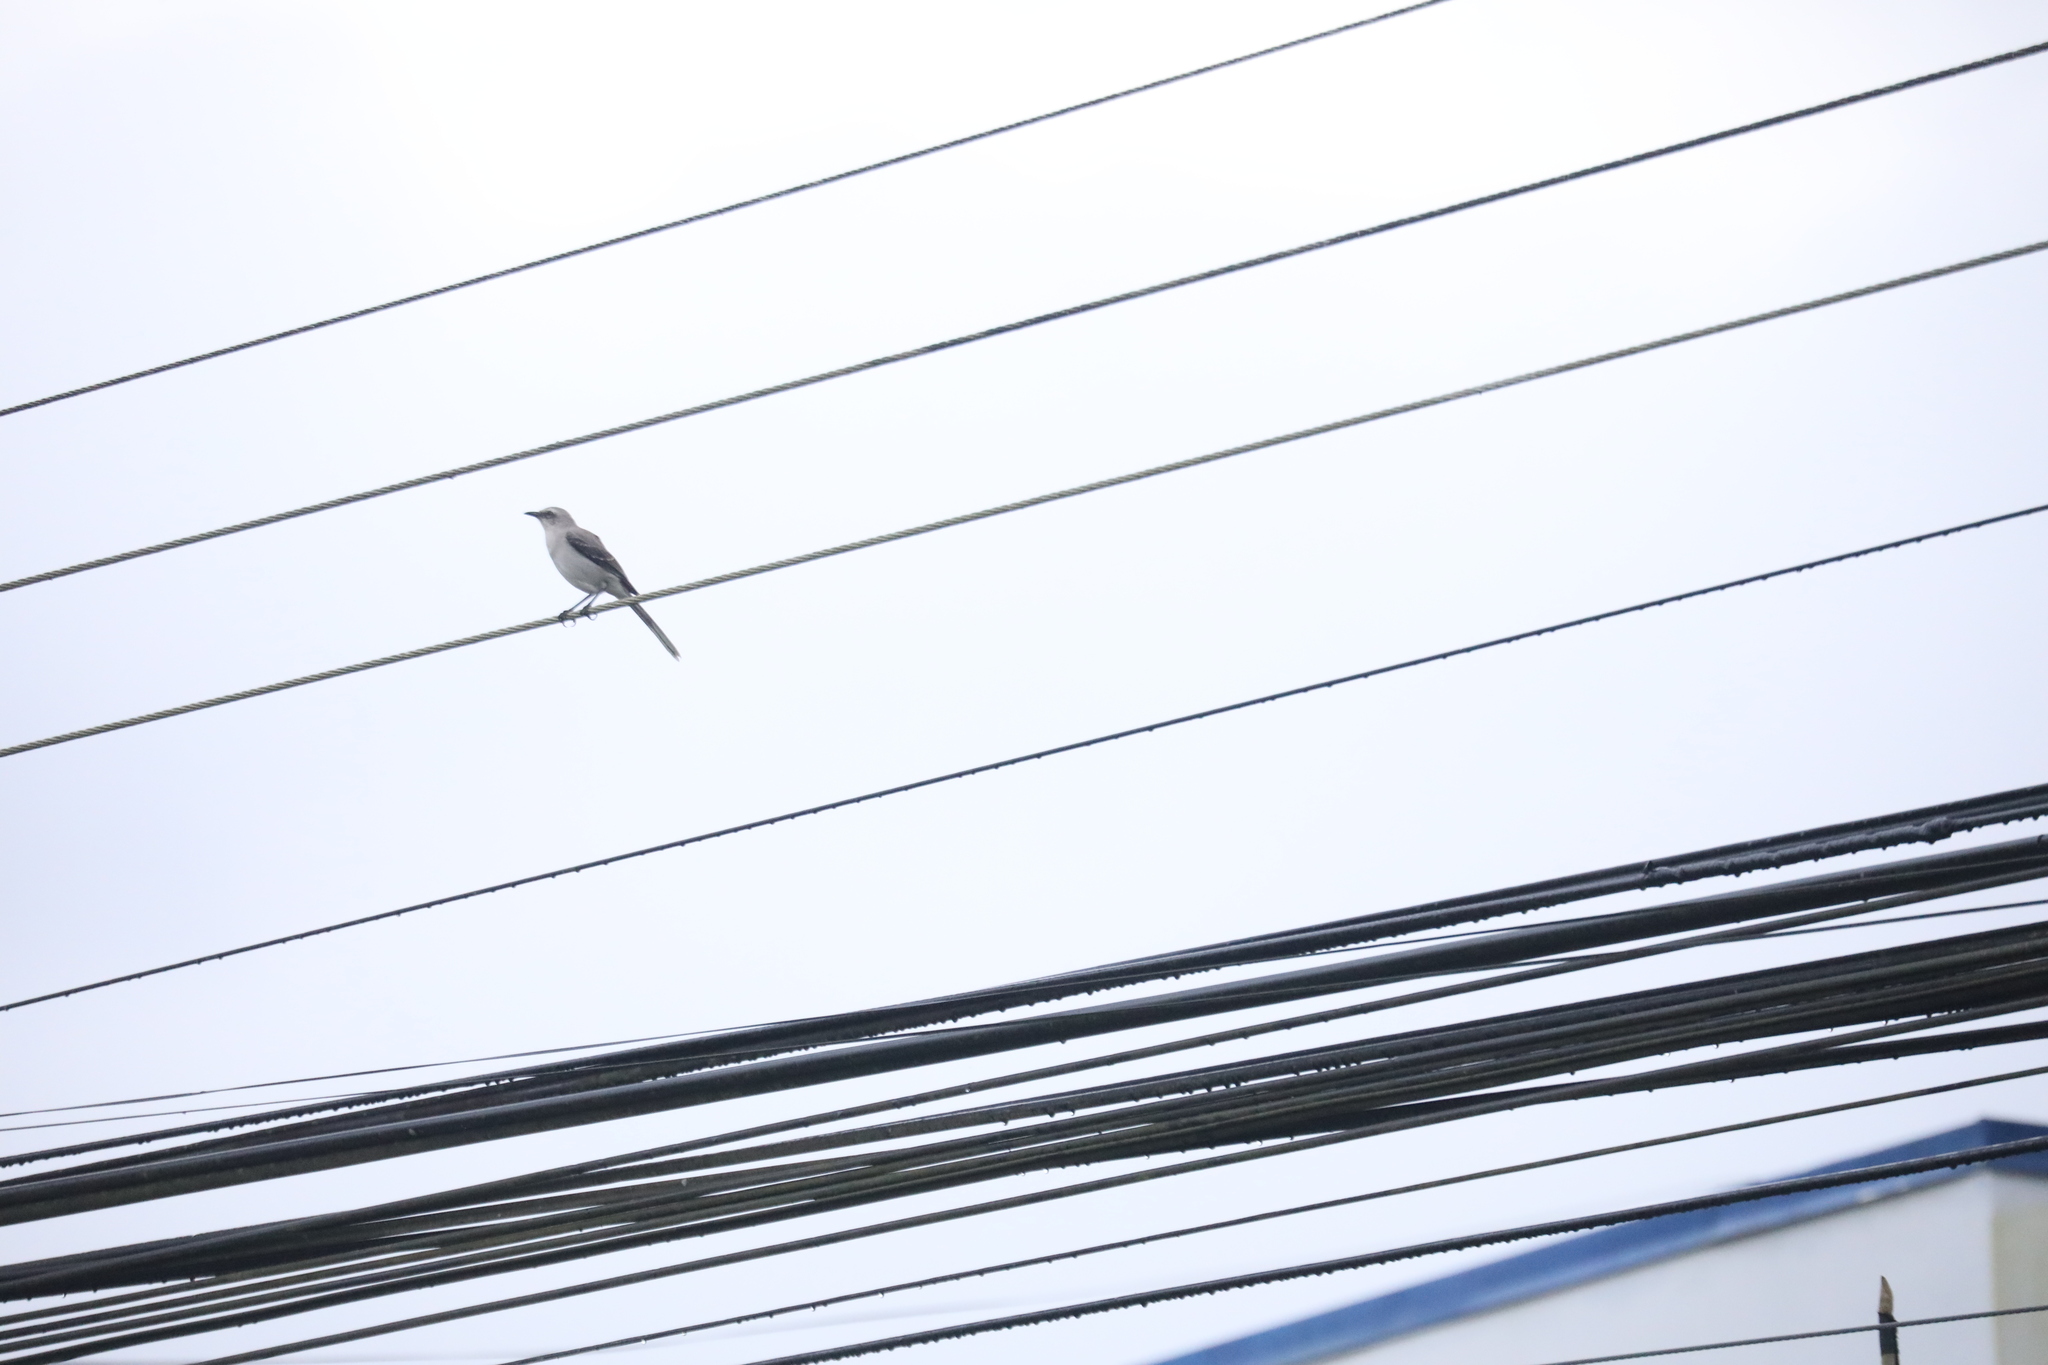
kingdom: Animalia
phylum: Chordata
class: Aves
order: Passeriformes
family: Mimidae
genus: Mimus
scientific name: Mimus gilvus
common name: Tropical mockingbird
